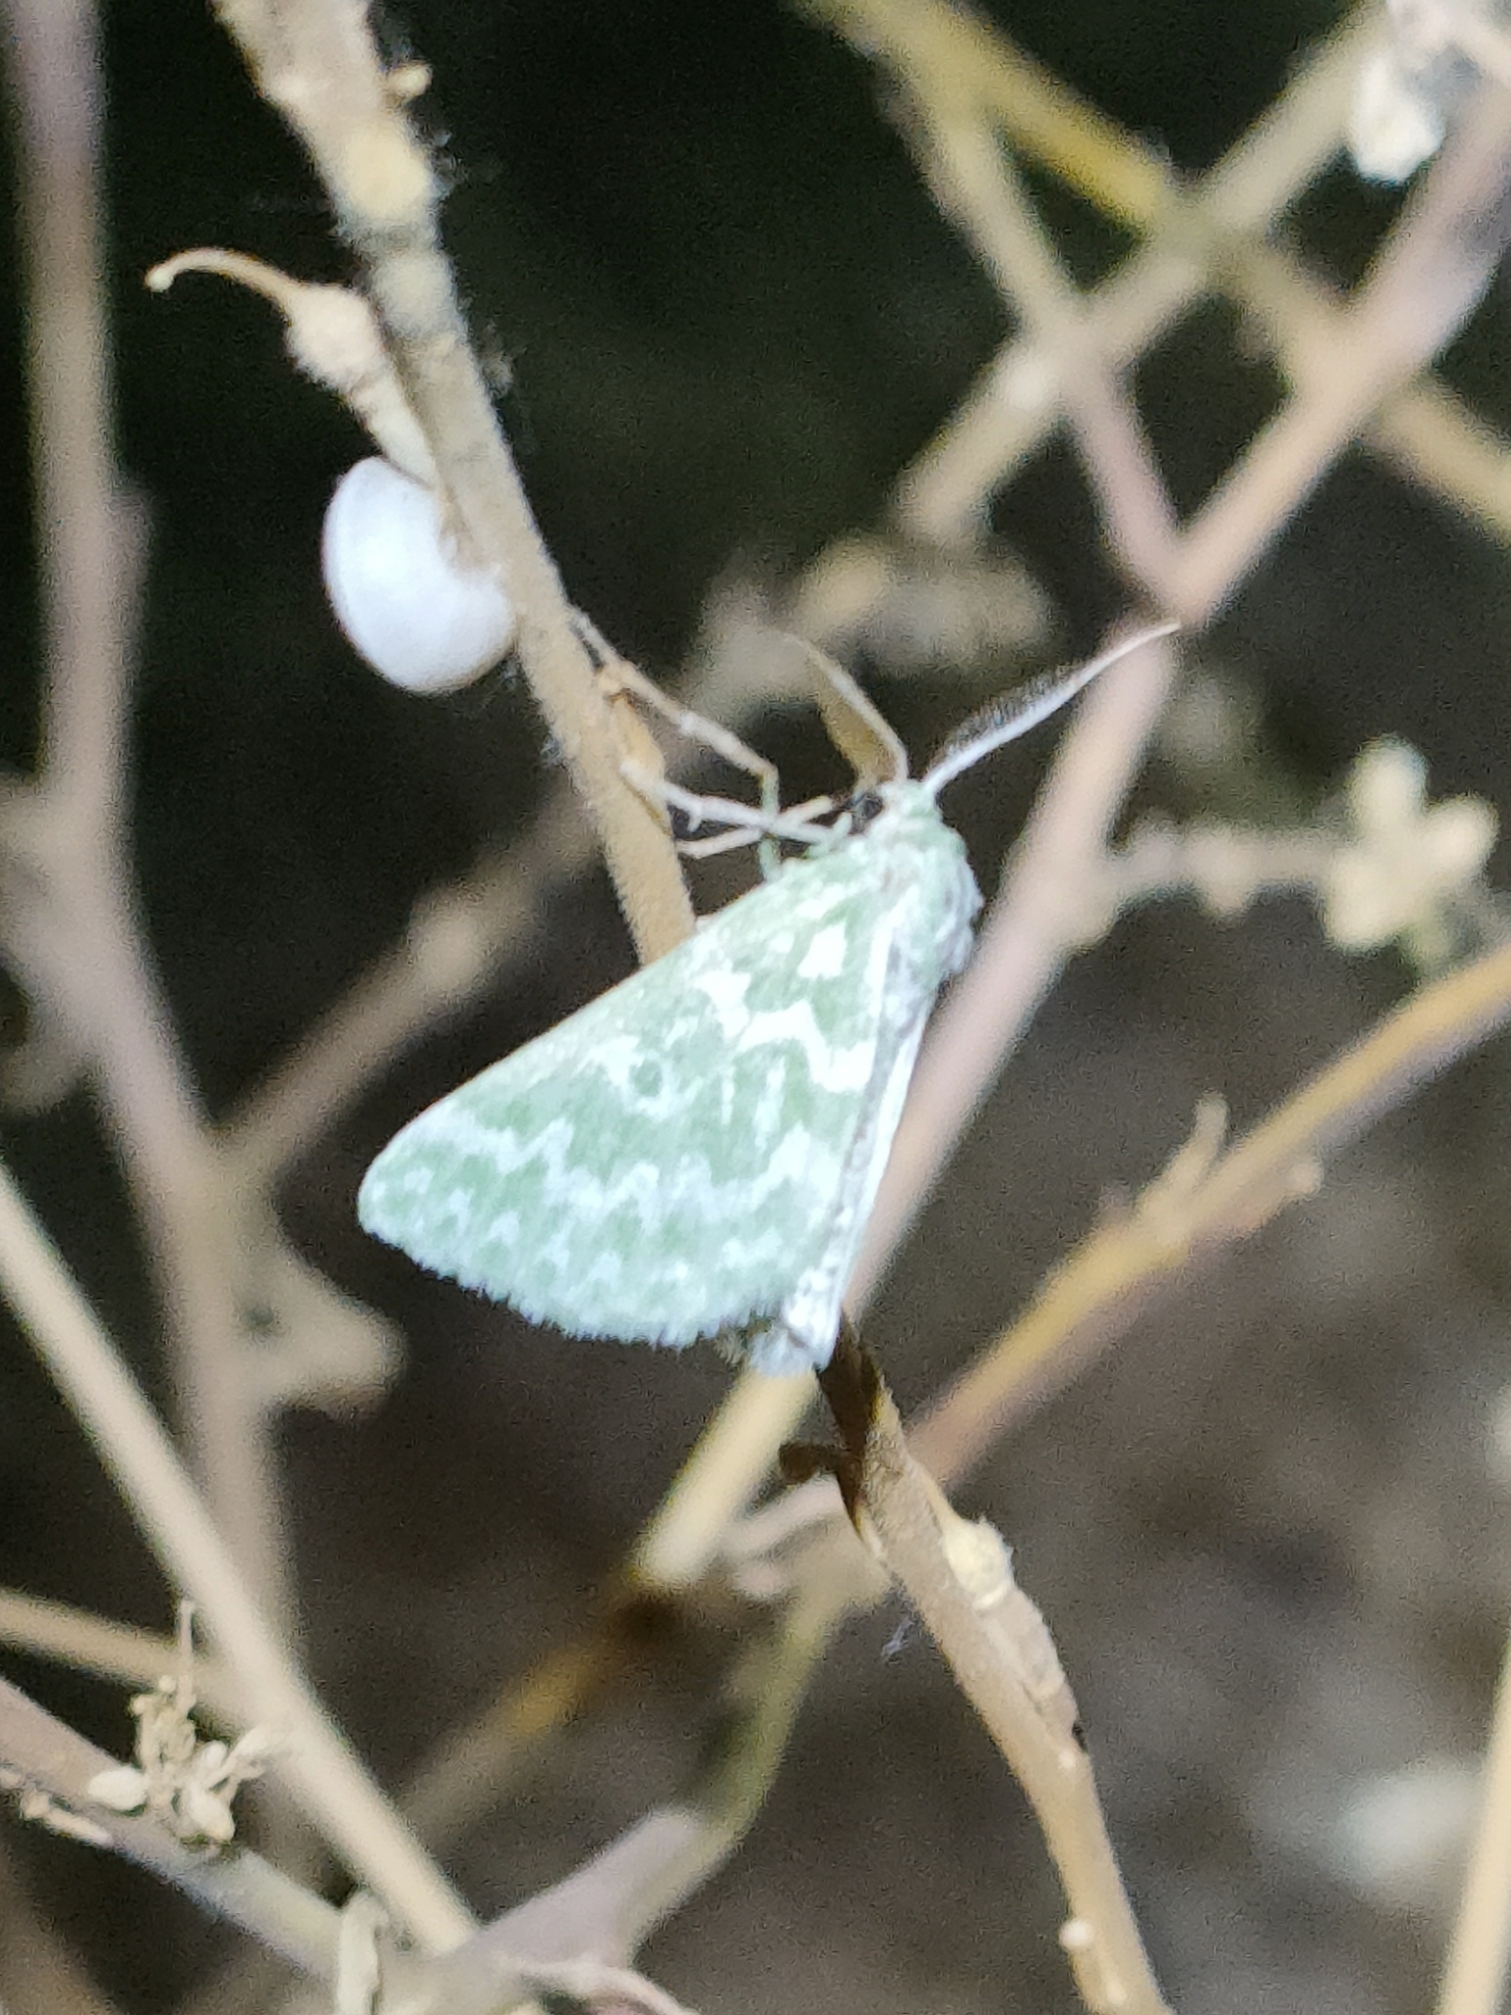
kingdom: Animalia
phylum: Arthropoda
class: Insecta
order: Lepidoptera
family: Geometridae
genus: Thetidia
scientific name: Thetidia plusiaria
